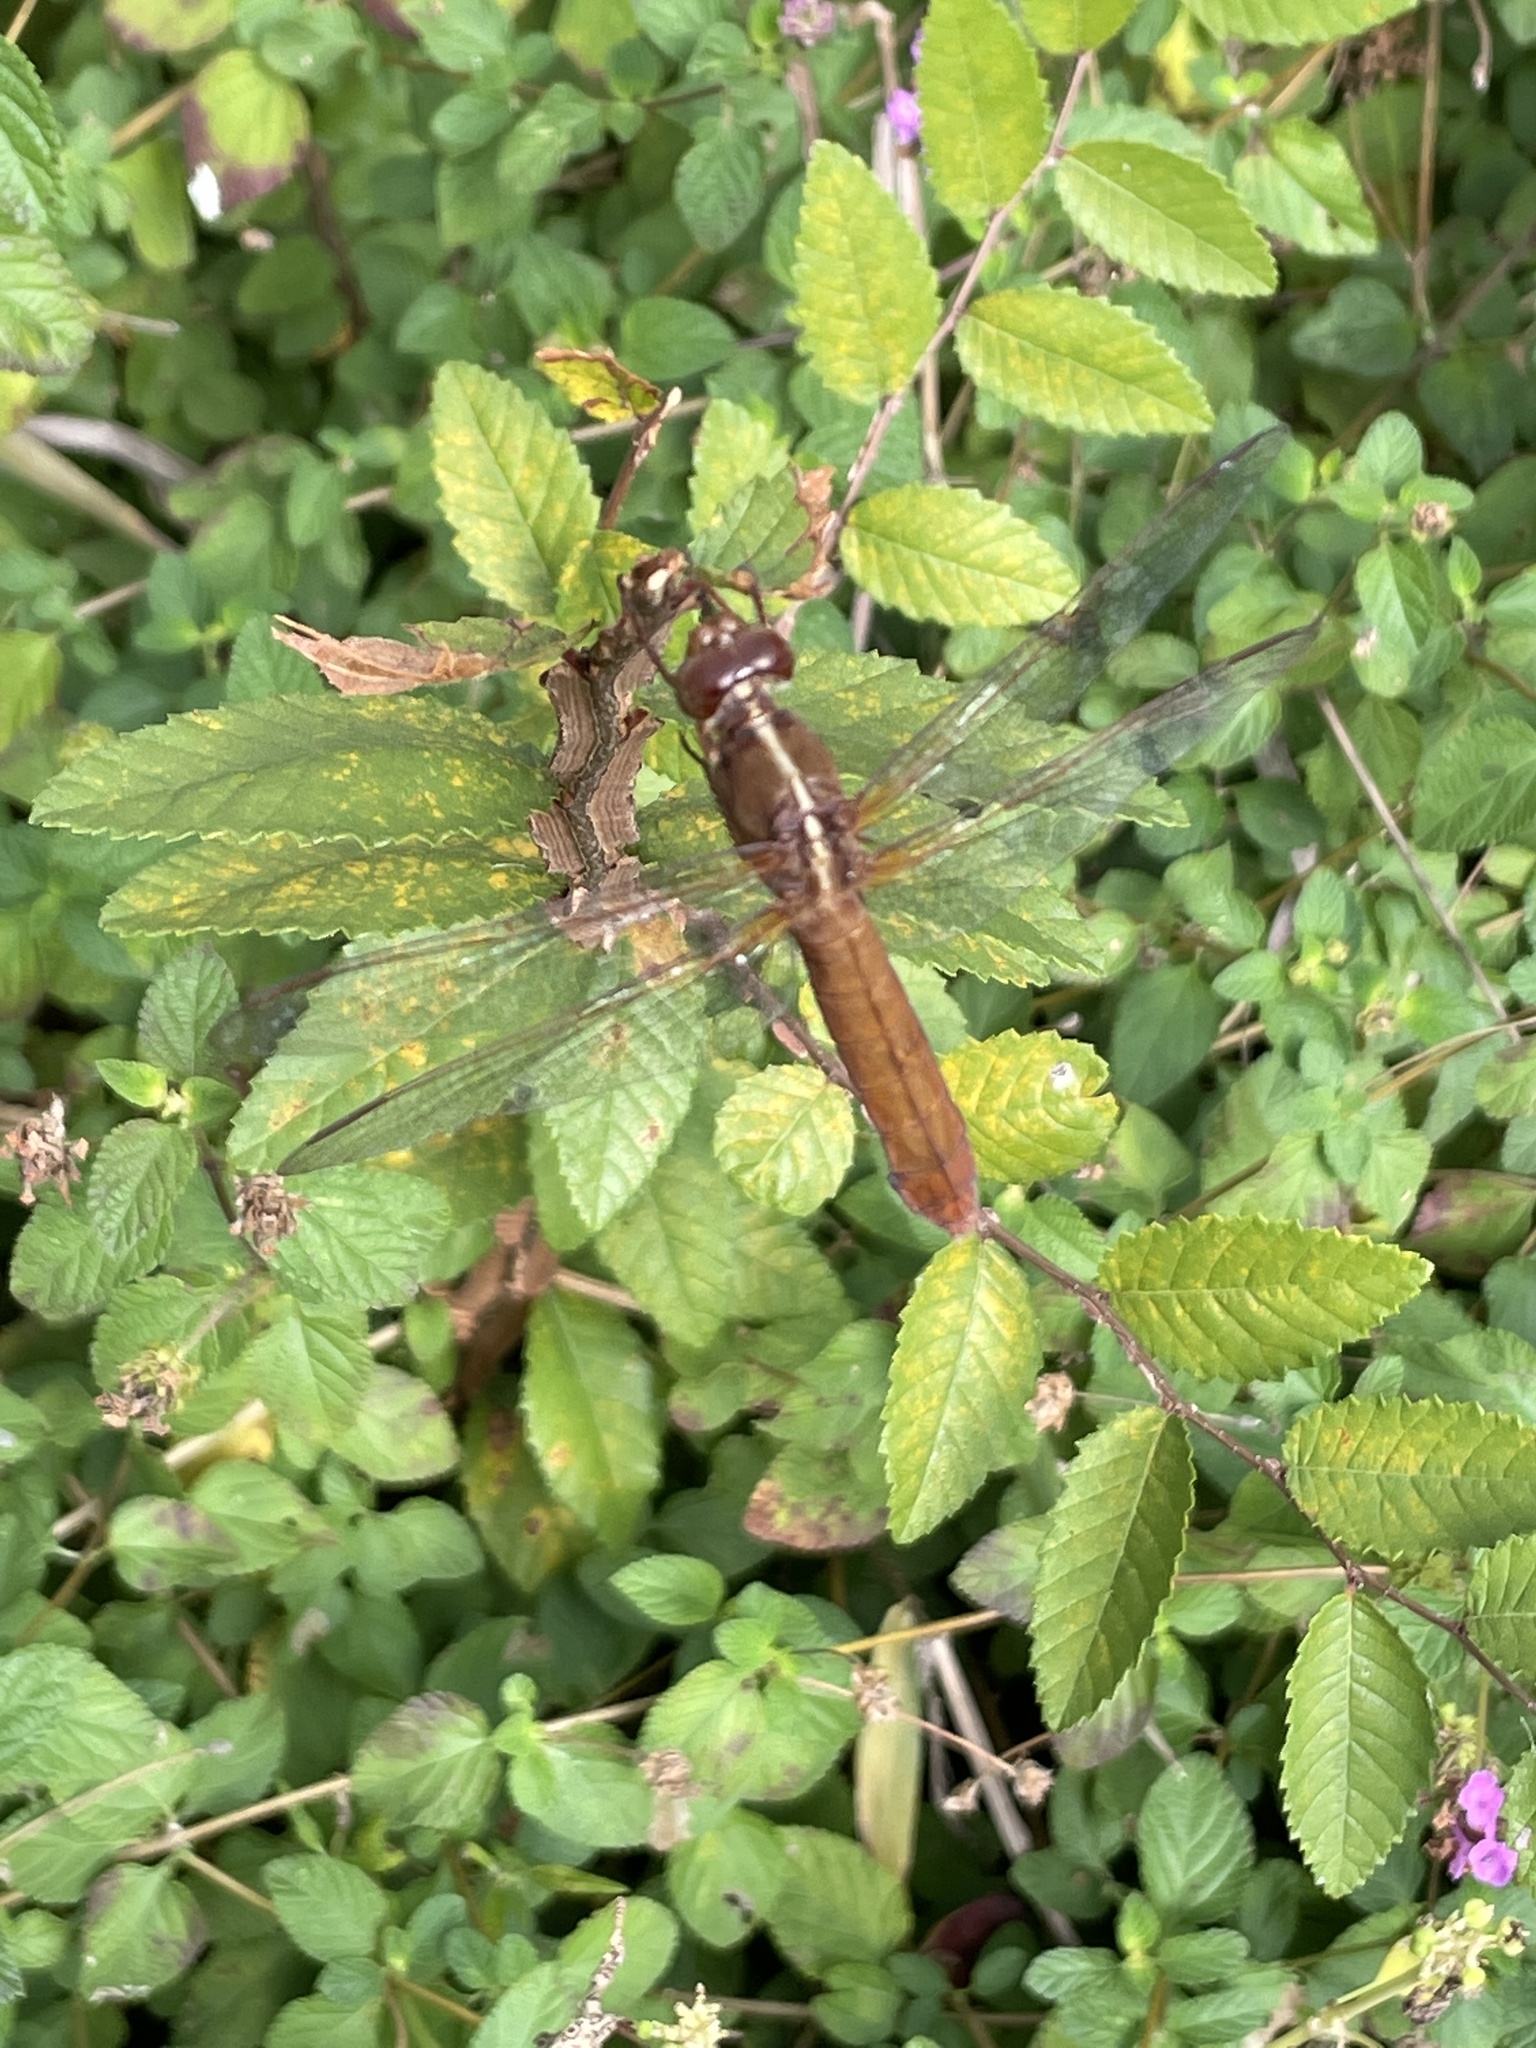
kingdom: Animalia
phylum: Arthropoda
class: Insecta
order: Odonata
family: Libellulidae
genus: Libellula
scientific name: Libellula croceipennis
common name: Neon skimmer
